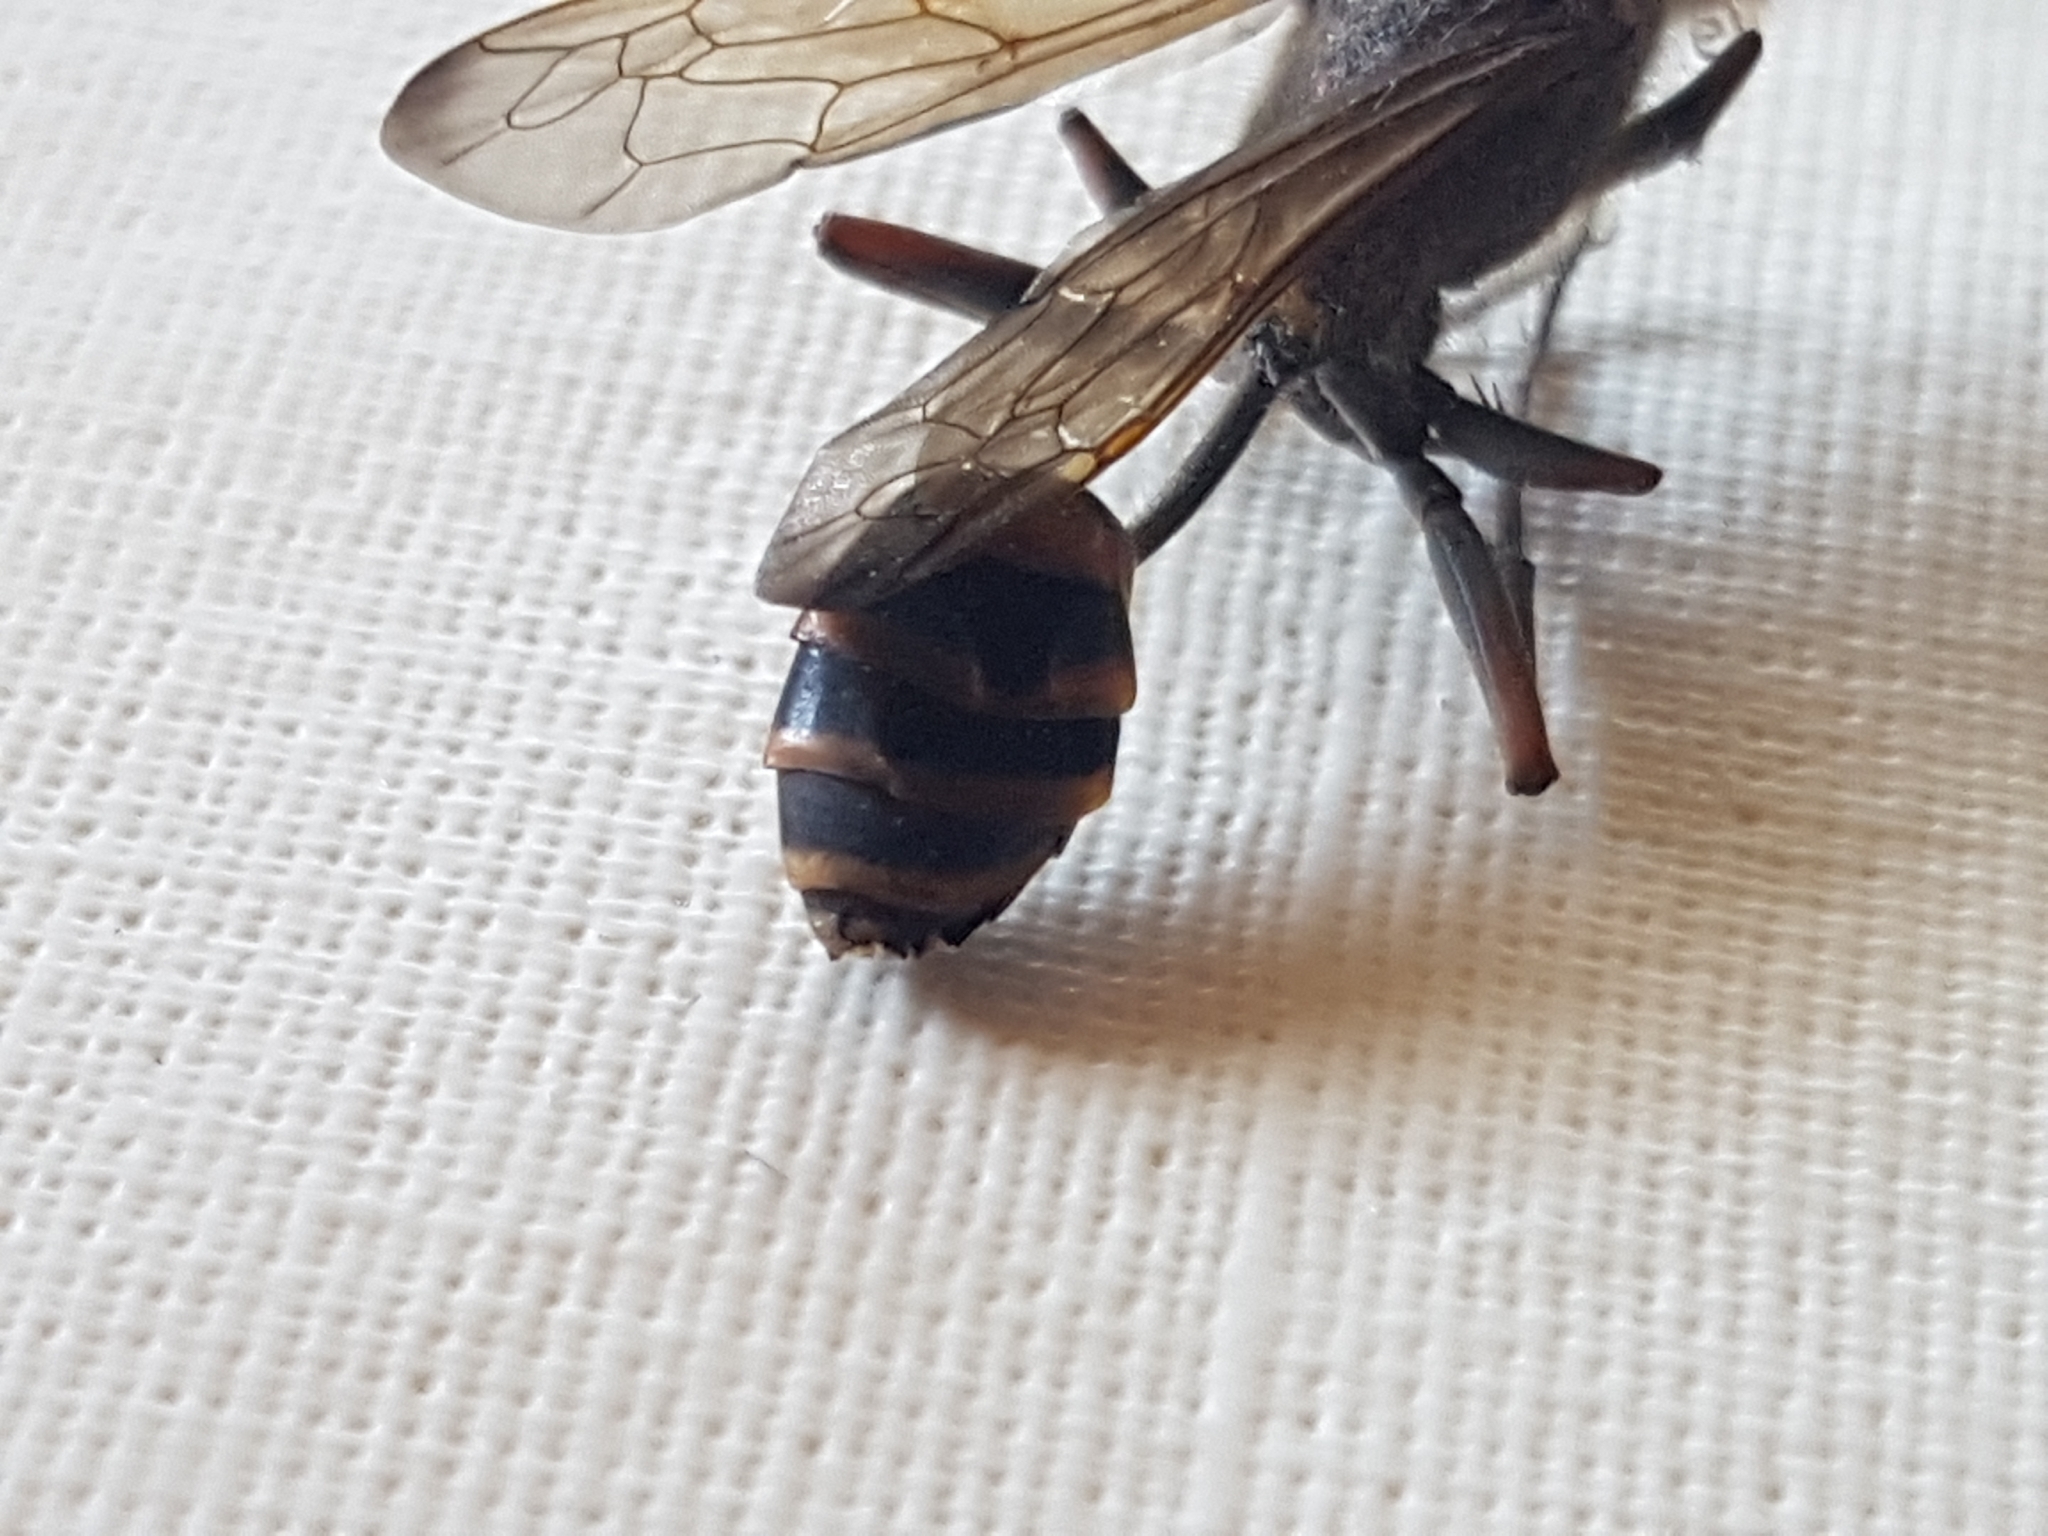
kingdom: Animalia
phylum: Arthropoda
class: Insecta
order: Hymenoptera
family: Sphecidae
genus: Sceliphron
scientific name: Sceliphron curvatum
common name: Pèlopèe
